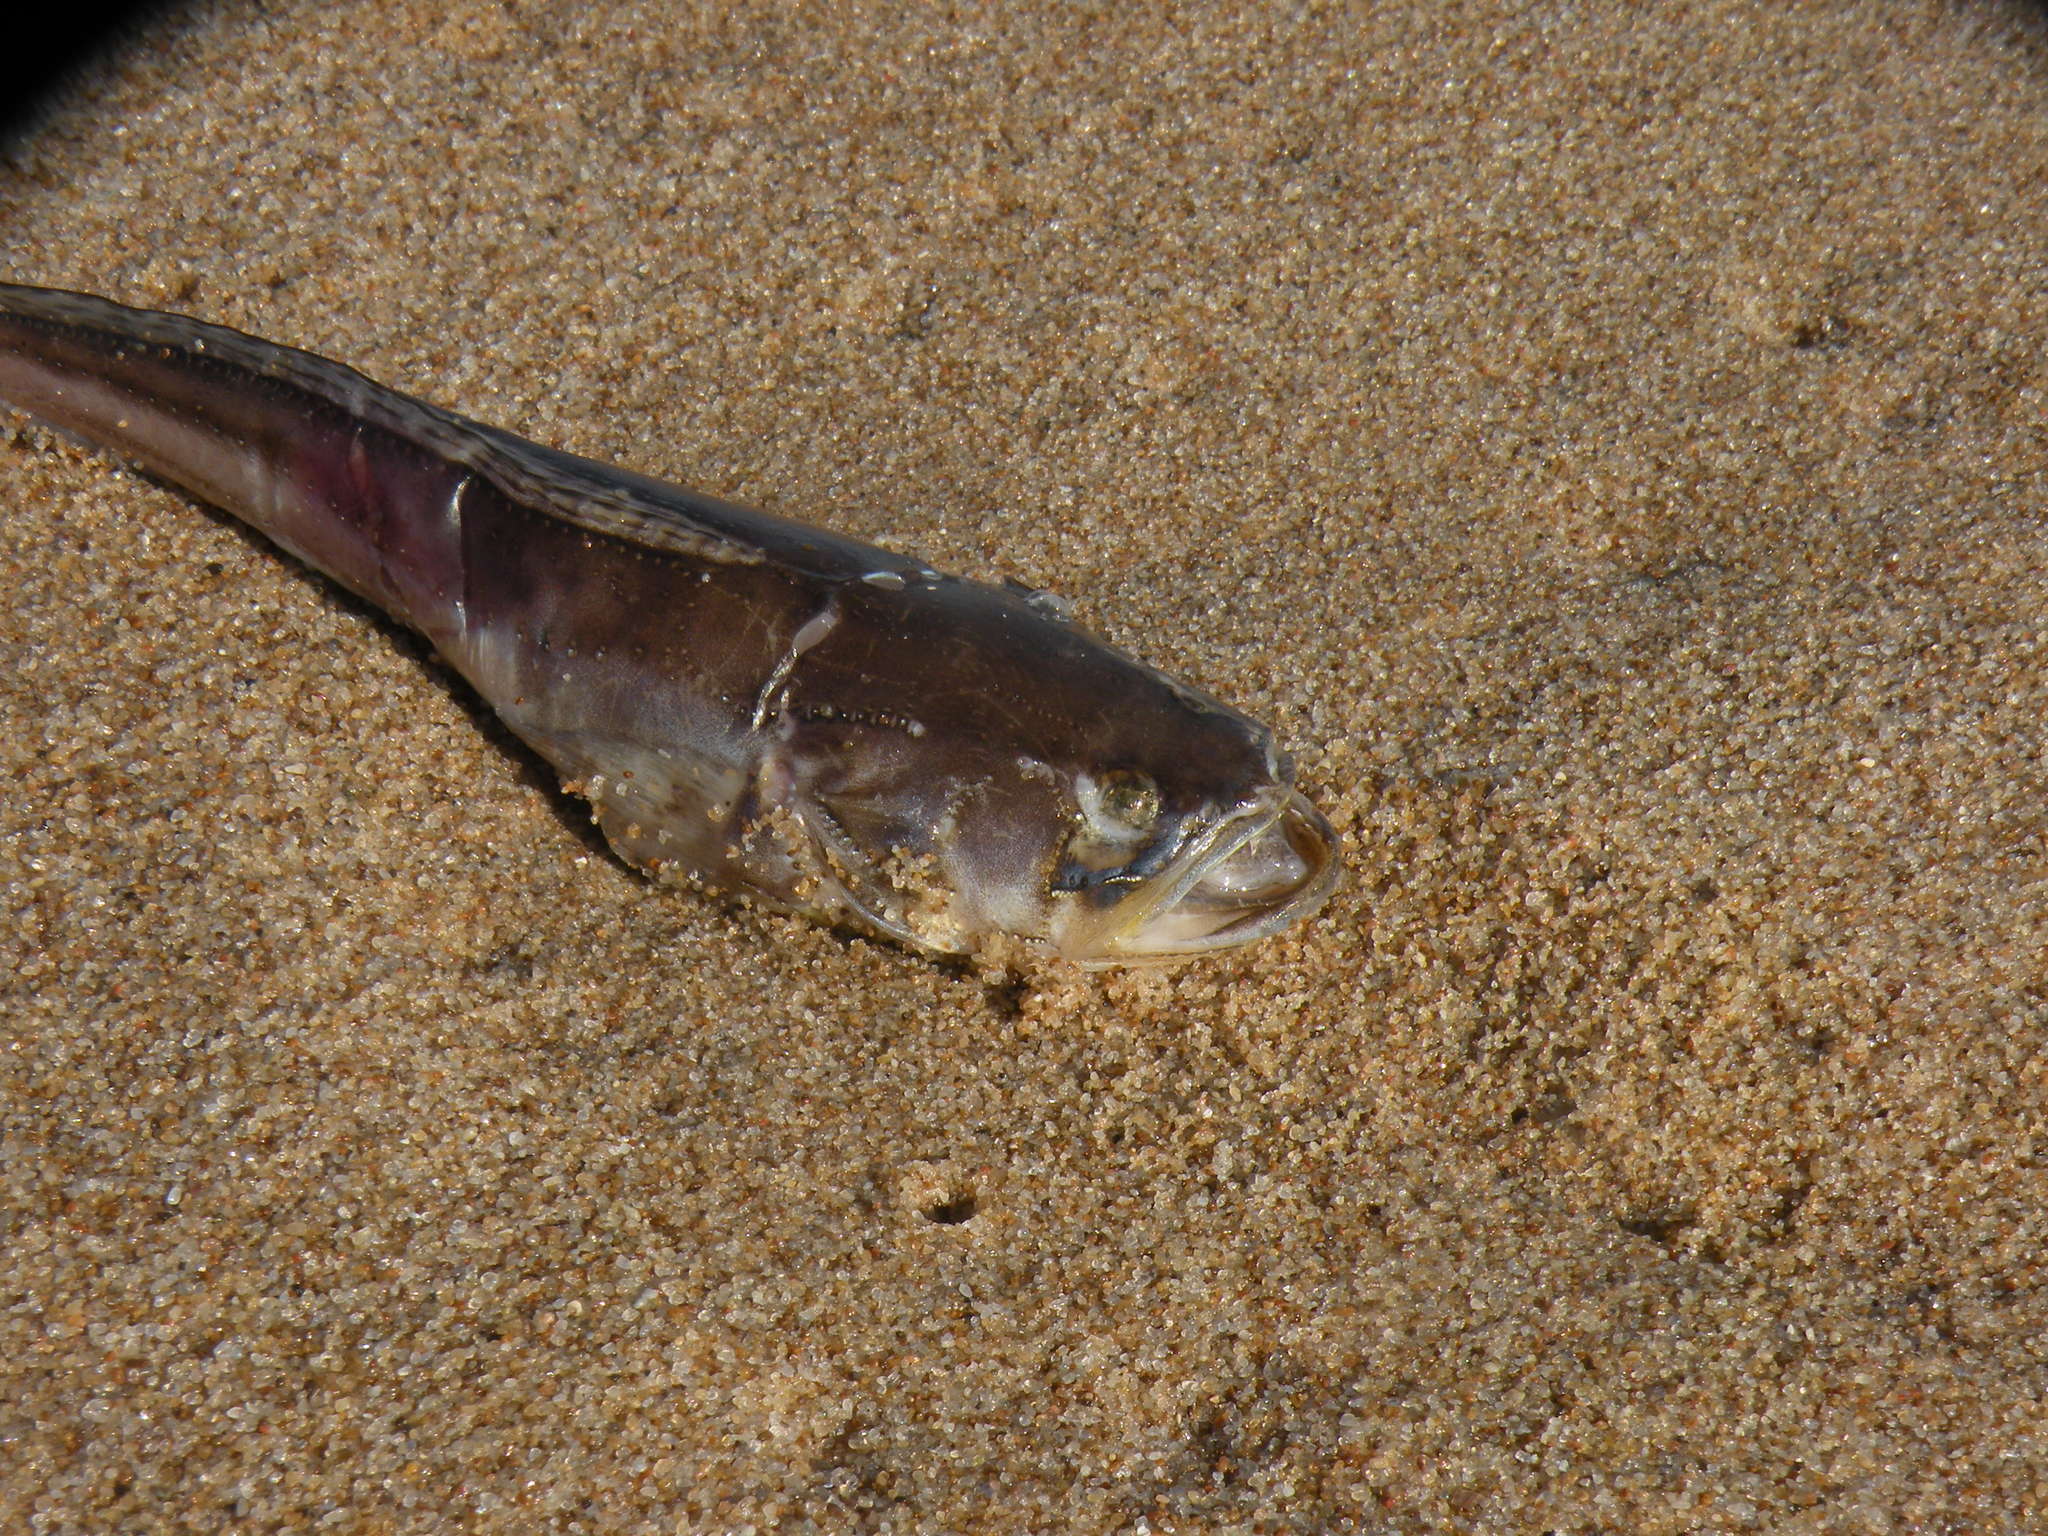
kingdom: Animalia
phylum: Chordata
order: Batrachoidiformes
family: Batrachoididae
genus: Porichthys
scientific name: Porichthys porosissimus
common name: Toadfish
